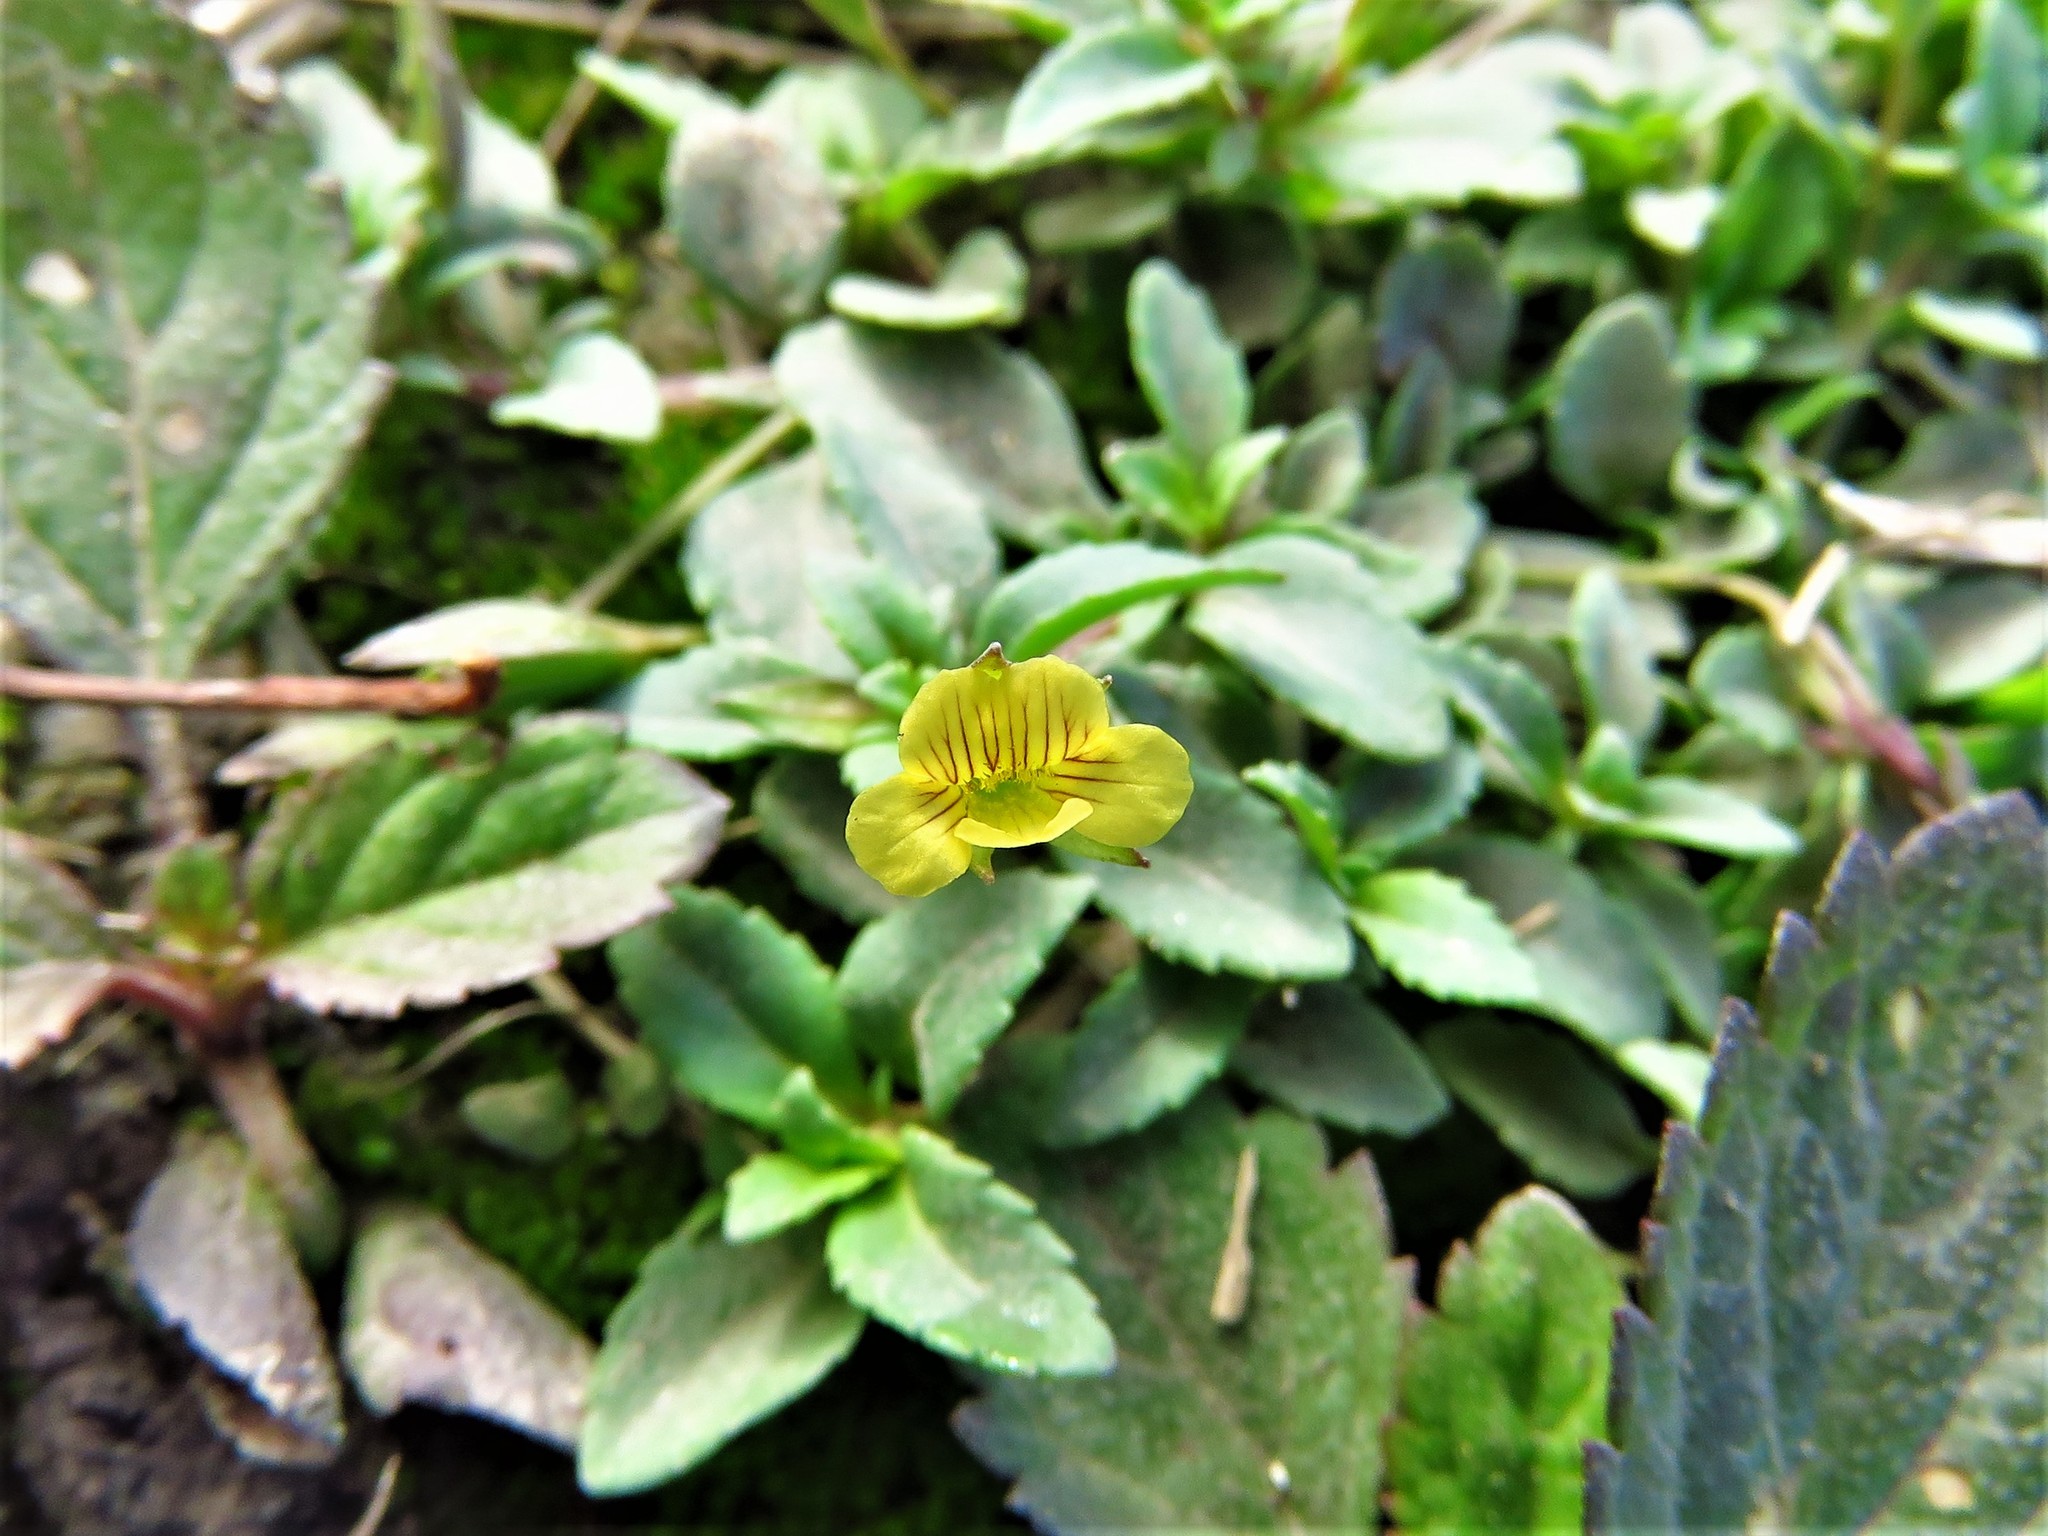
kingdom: Plantae
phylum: Tracheophyta
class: Magnoliopsida
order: Lamiales
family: Plantaginaceae
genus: Mecardonia
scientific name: Mecardonia procumbens
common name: Baby jump-up
